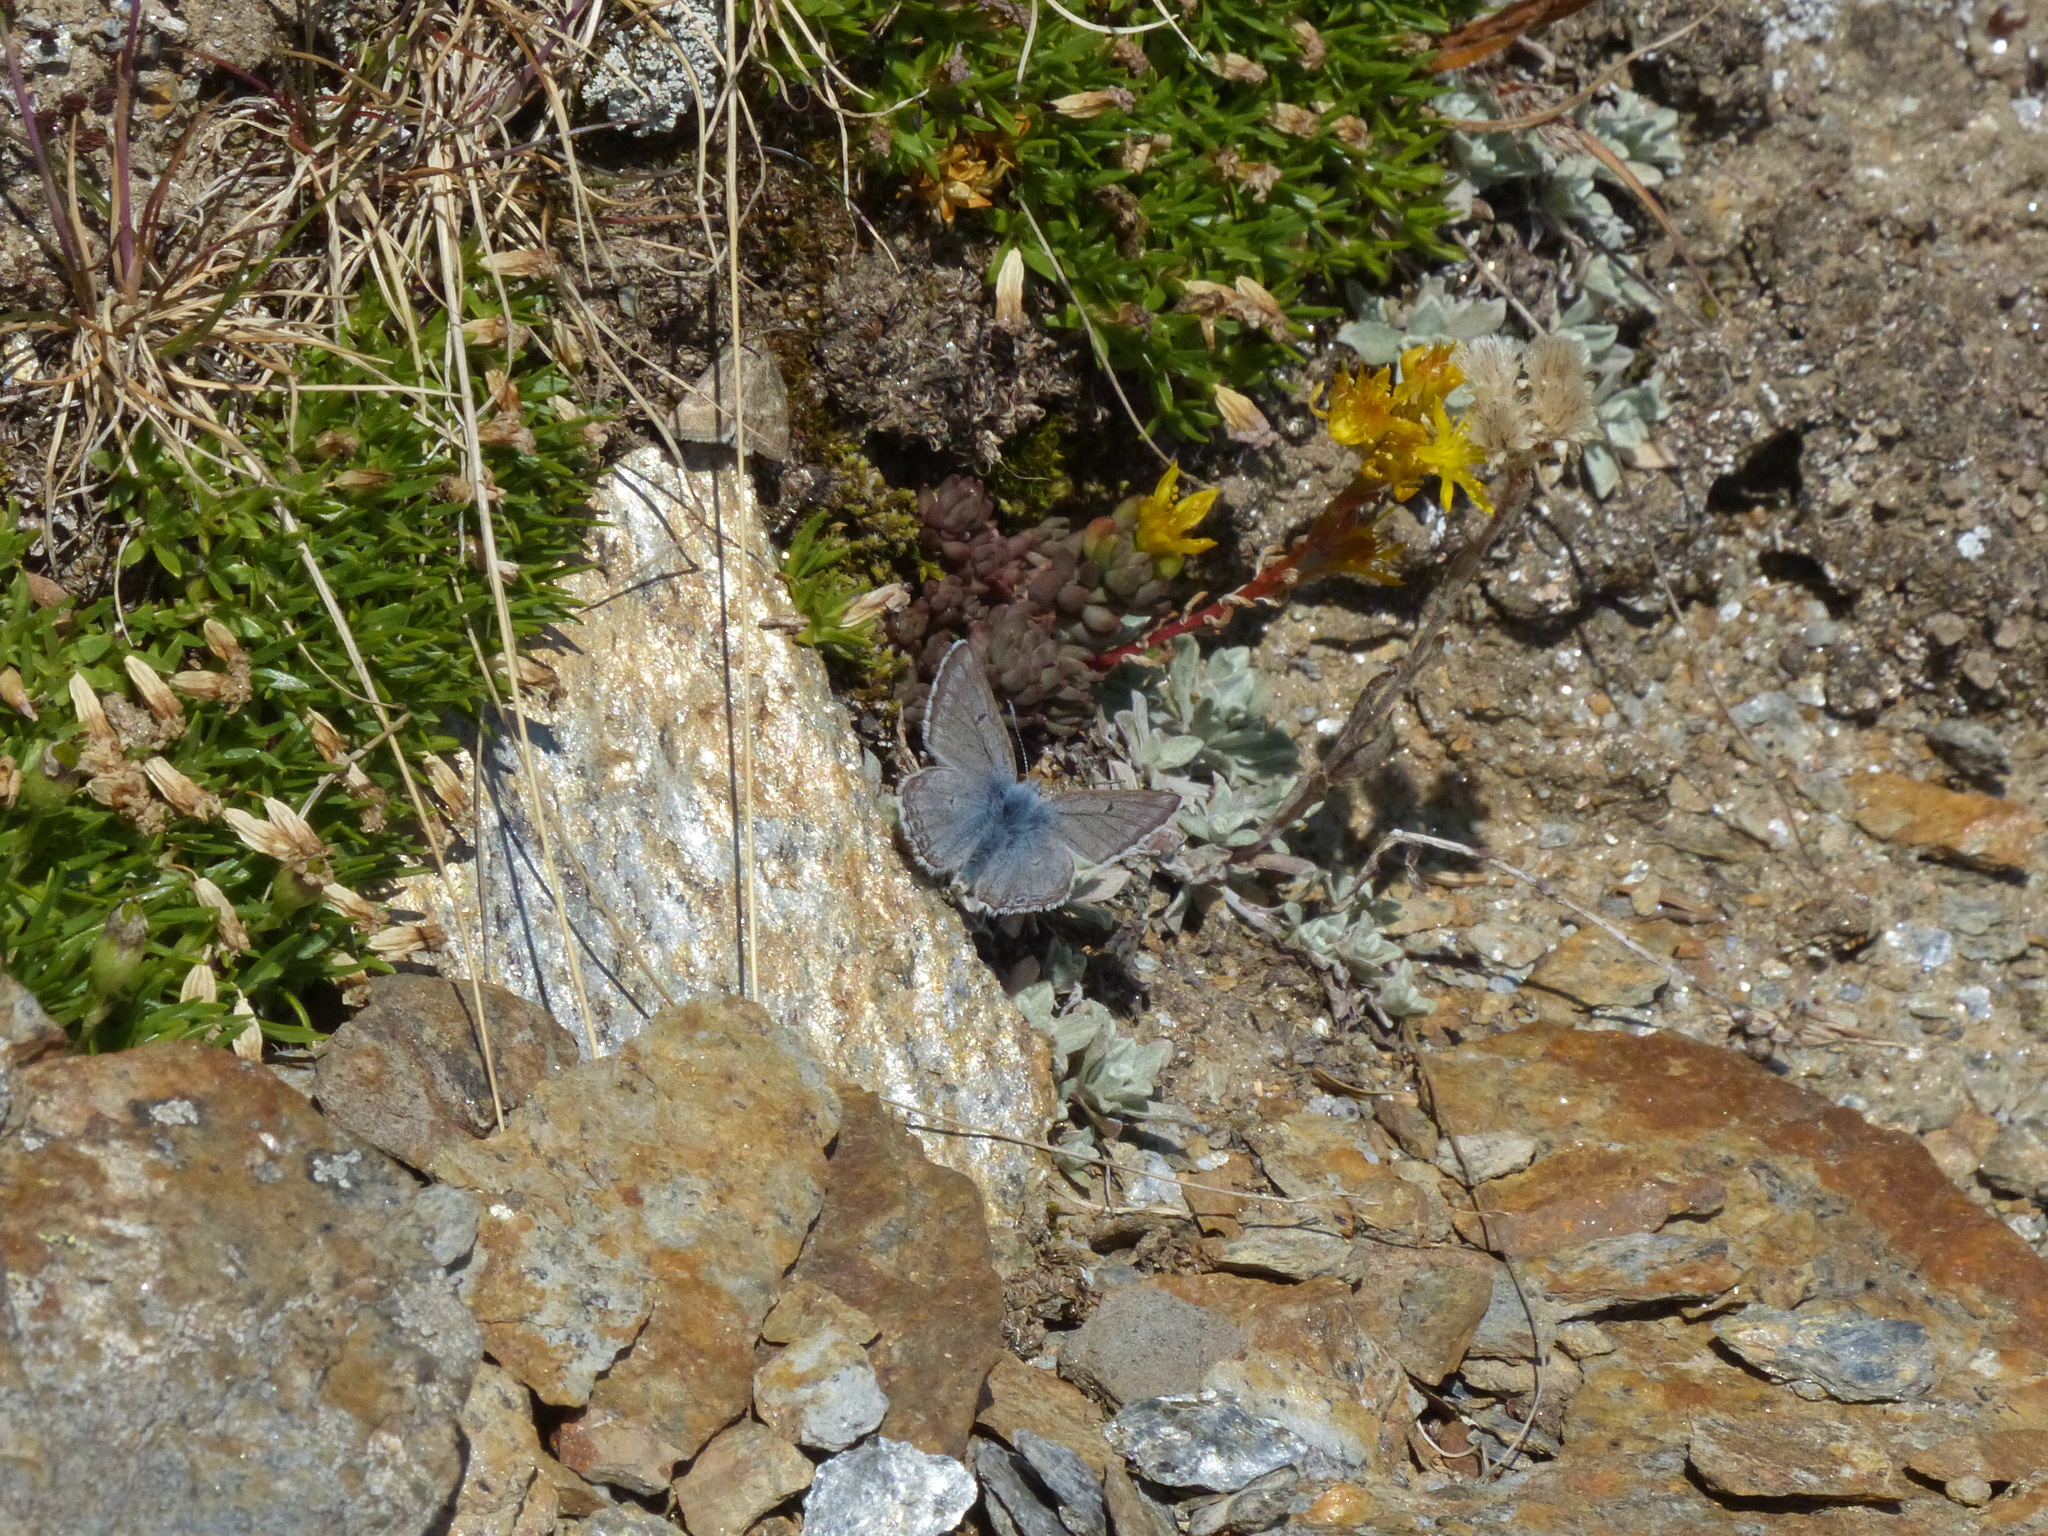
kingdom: Animalia
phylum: Arthropoda
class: Insecta
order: Lepidoptera
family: Lycaenidae
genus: Agriades
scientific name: Agriades glandon
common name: Glandon blue
